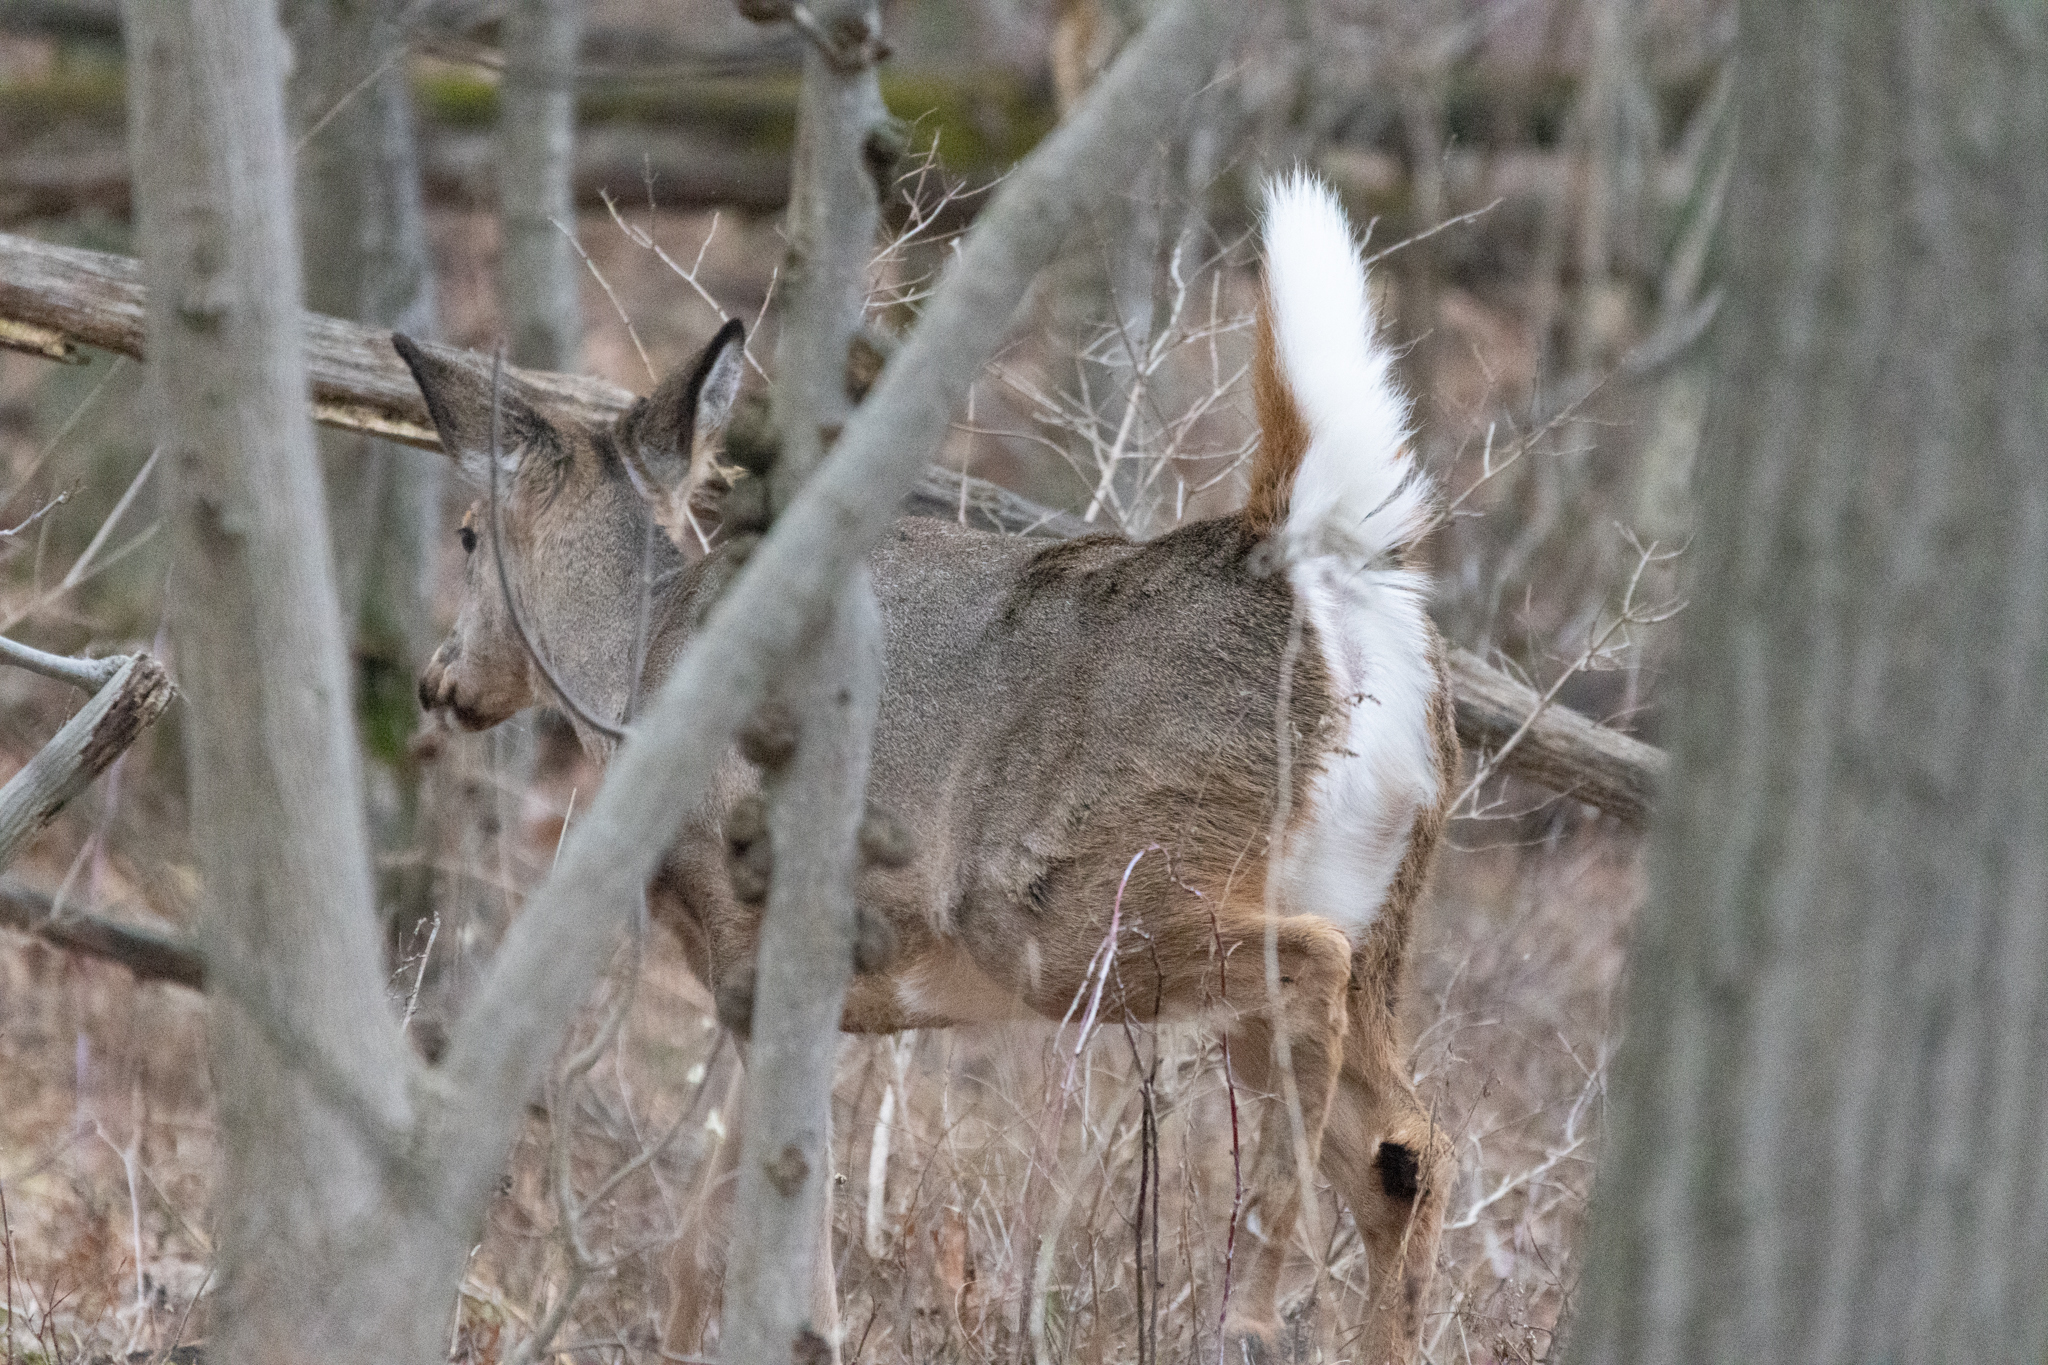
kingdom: Animalia
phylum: Chordata
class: Mammalia
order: Artiodactyla
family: Cervidae
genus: Odocoileus
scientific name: Odocoileus virginianus
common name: White-tailed deer
